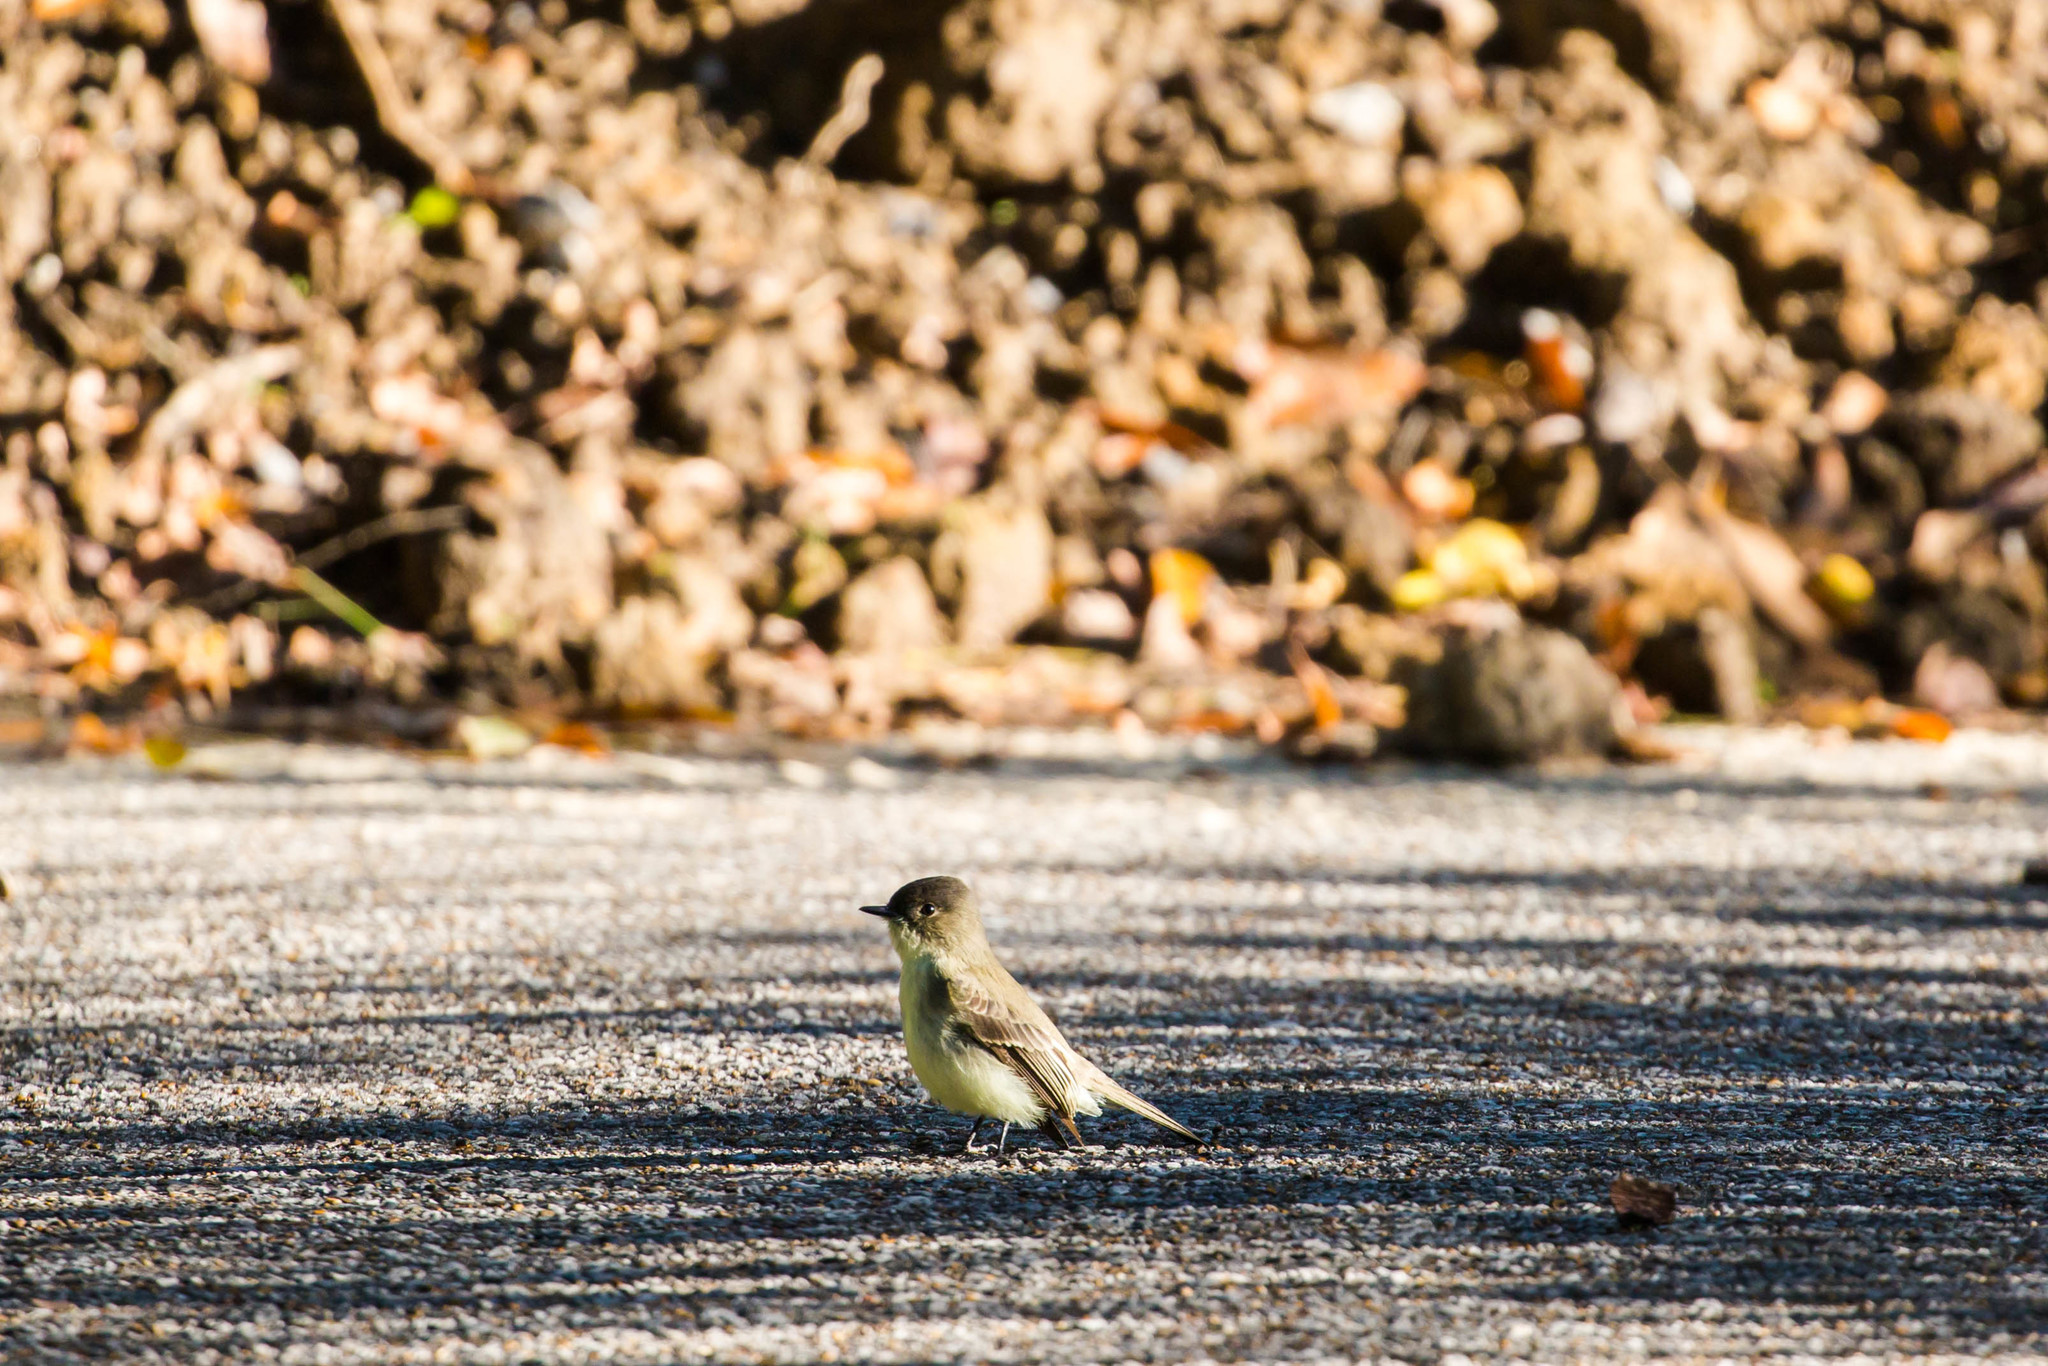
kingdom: Animalia
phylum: Chordata
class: Aves
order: Passeriformes
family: Tyrannidae
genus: Sayornis
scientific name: Sayornis phoebe
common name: Eastern phoebe
